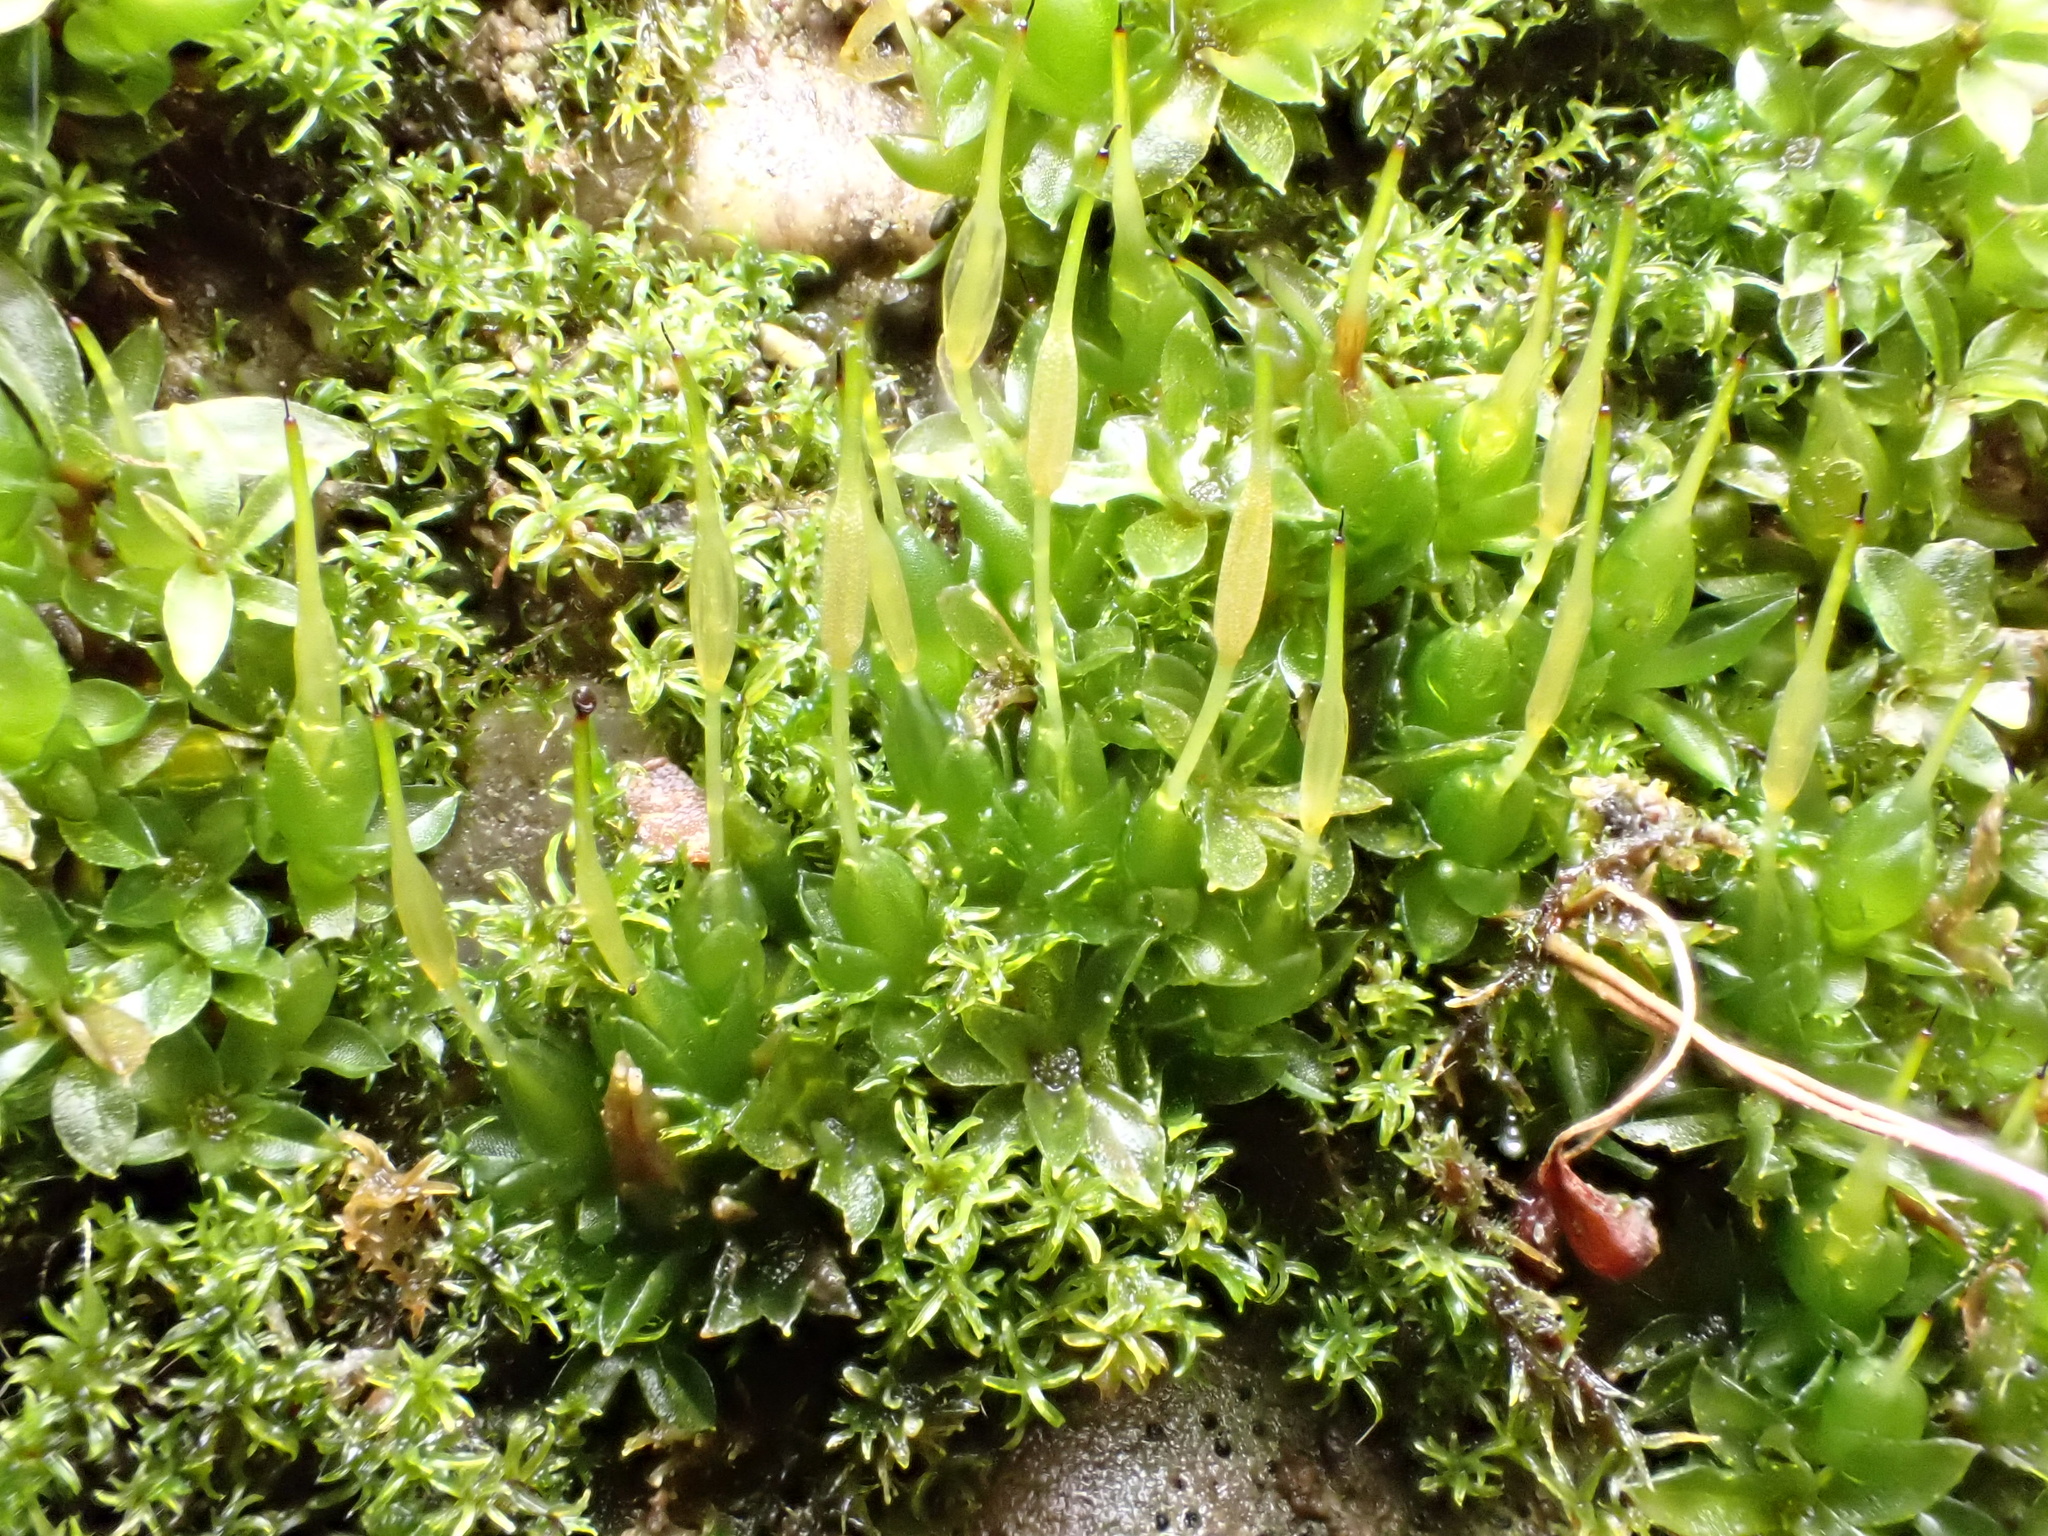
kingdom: Plantae
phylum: Bryophyta
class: Bryopsida
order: Funariales
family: Funariaceae
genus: Funaria
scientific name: Funaria hygrometrica
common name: Common cord moss
